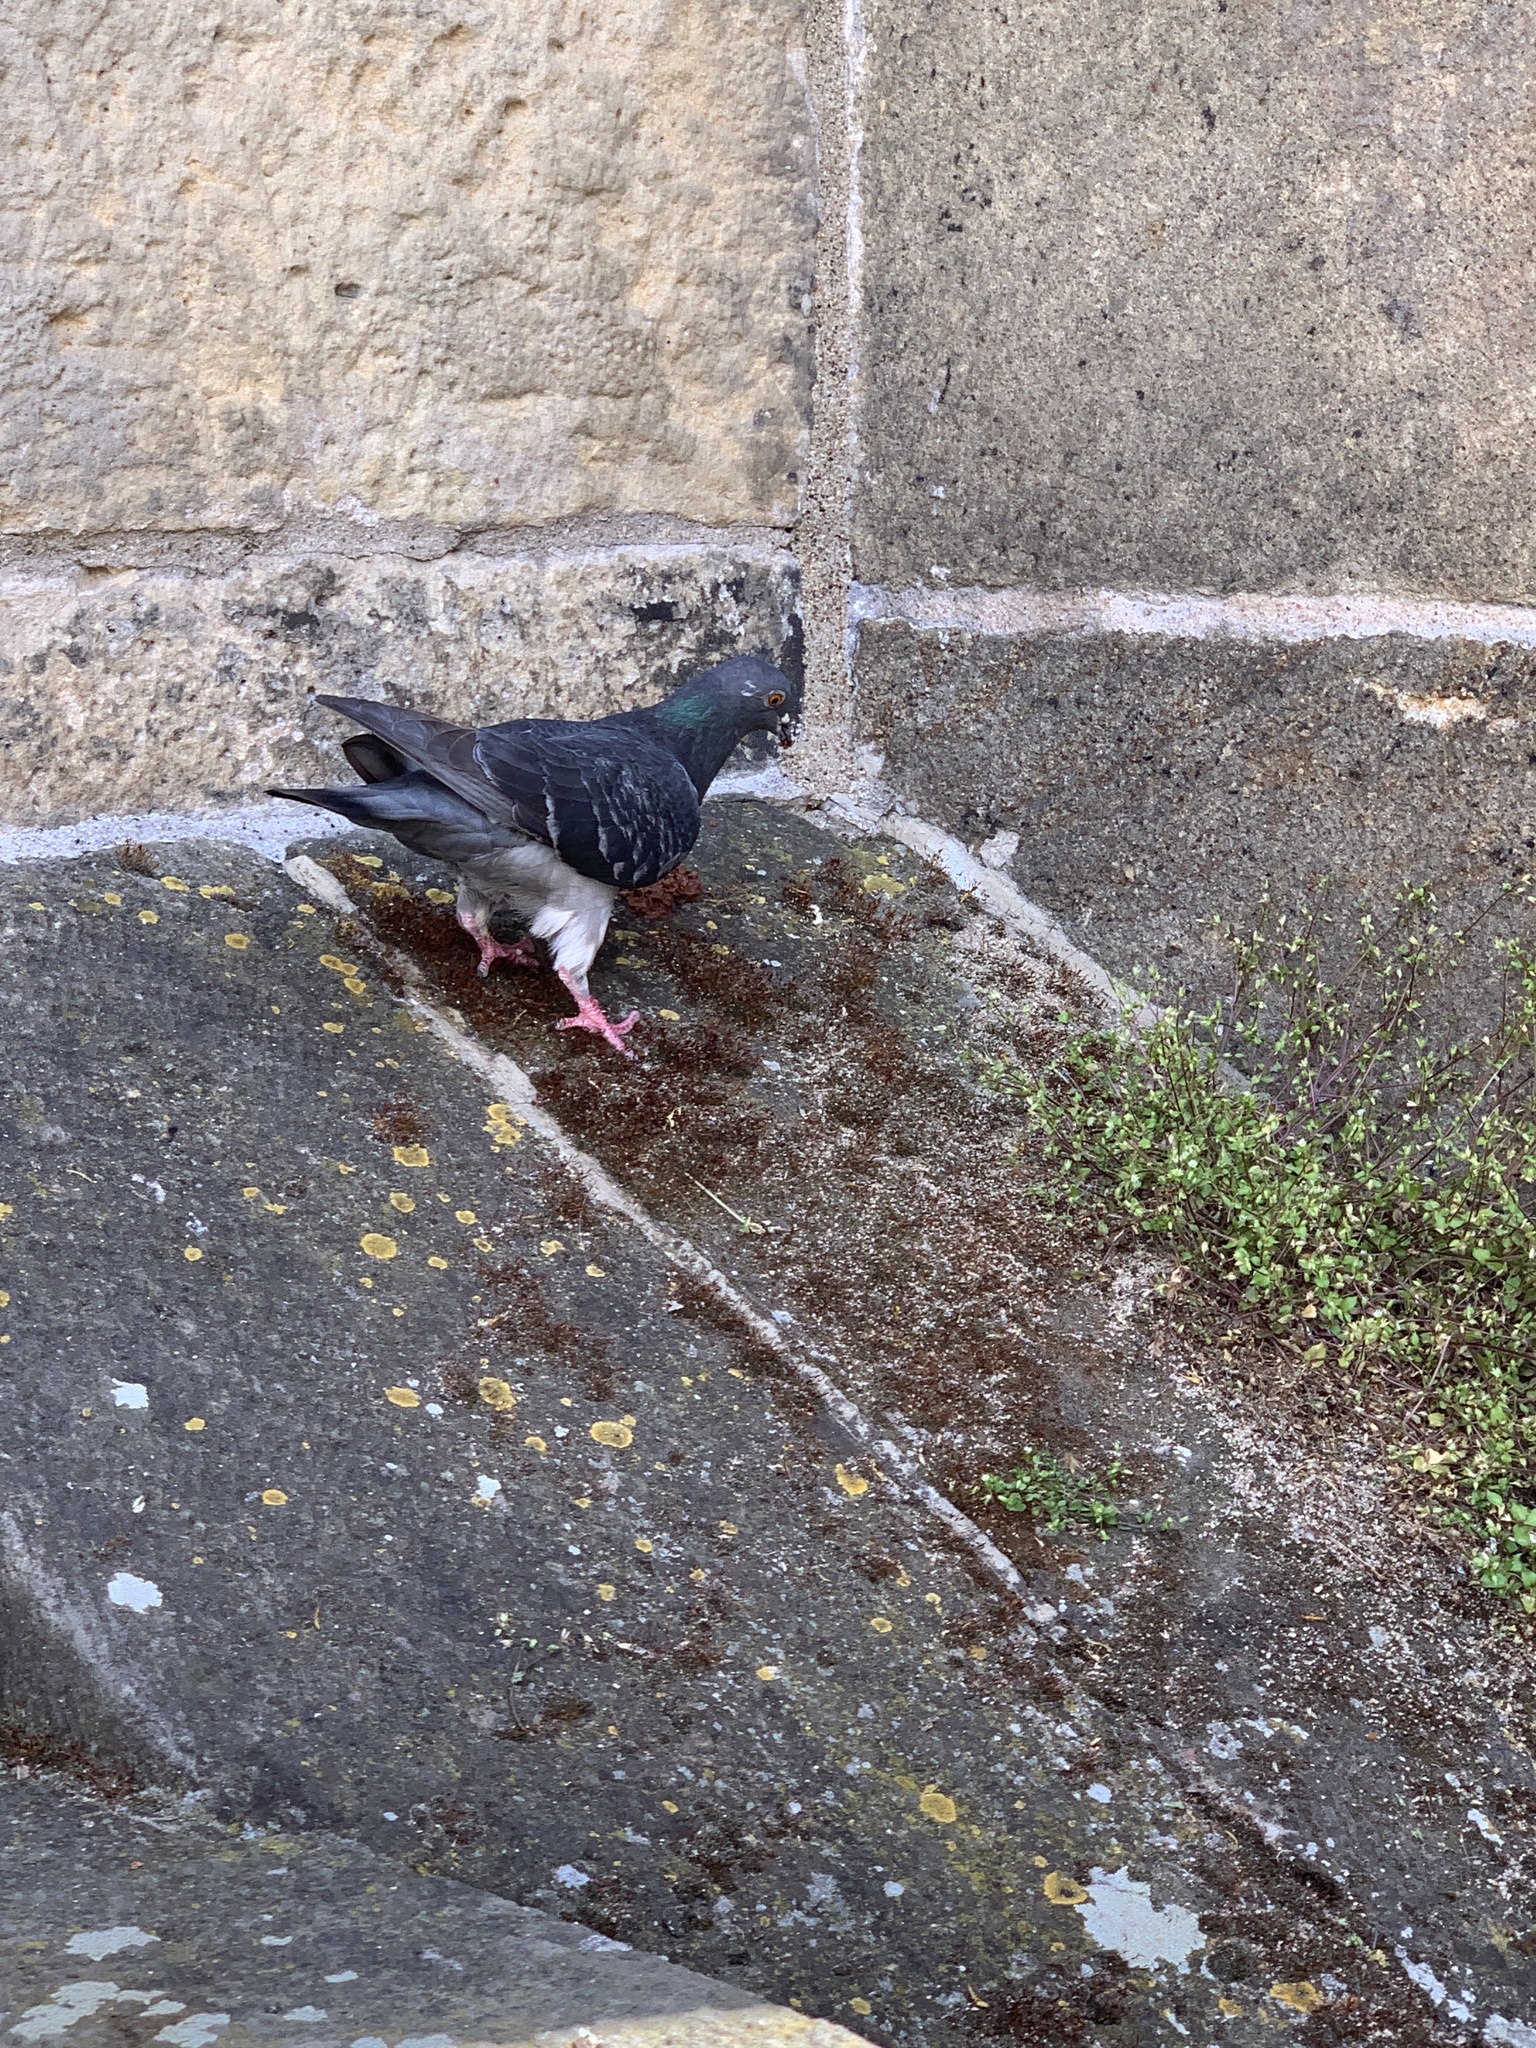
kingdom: Animalia
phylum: Chordata
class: Aves
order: Columbiformes
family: Columbidae
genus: Columba
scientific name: Columba livia
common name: Rock pigeon
